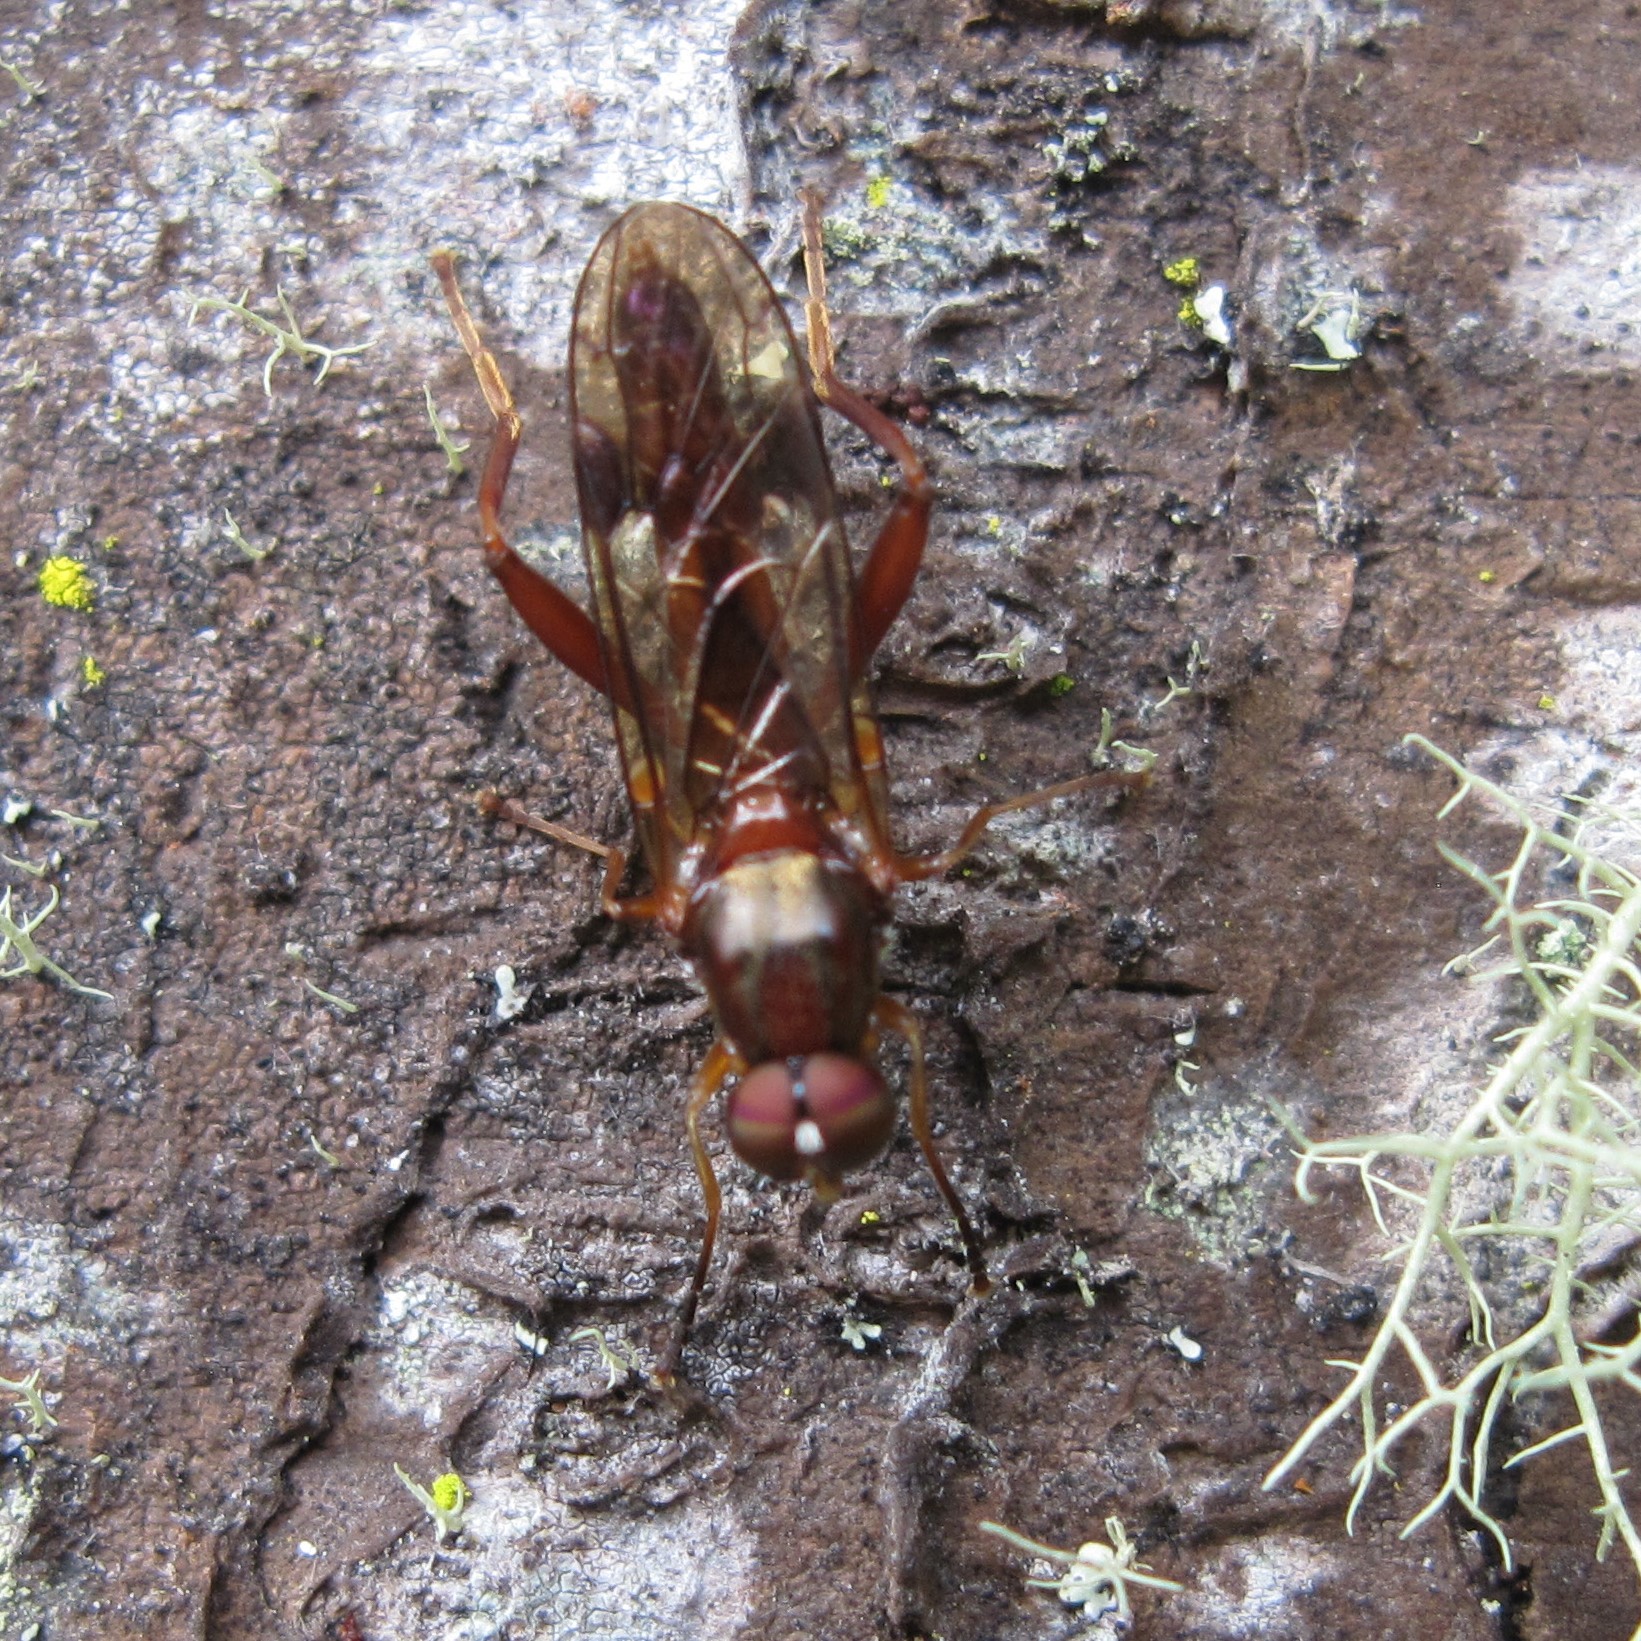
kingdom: Animalia
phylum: Arthropoda
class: Insecta
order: Diptera
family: Stratiomyidae
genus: Benhamyia
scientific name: Benhamyia straznitzkii
